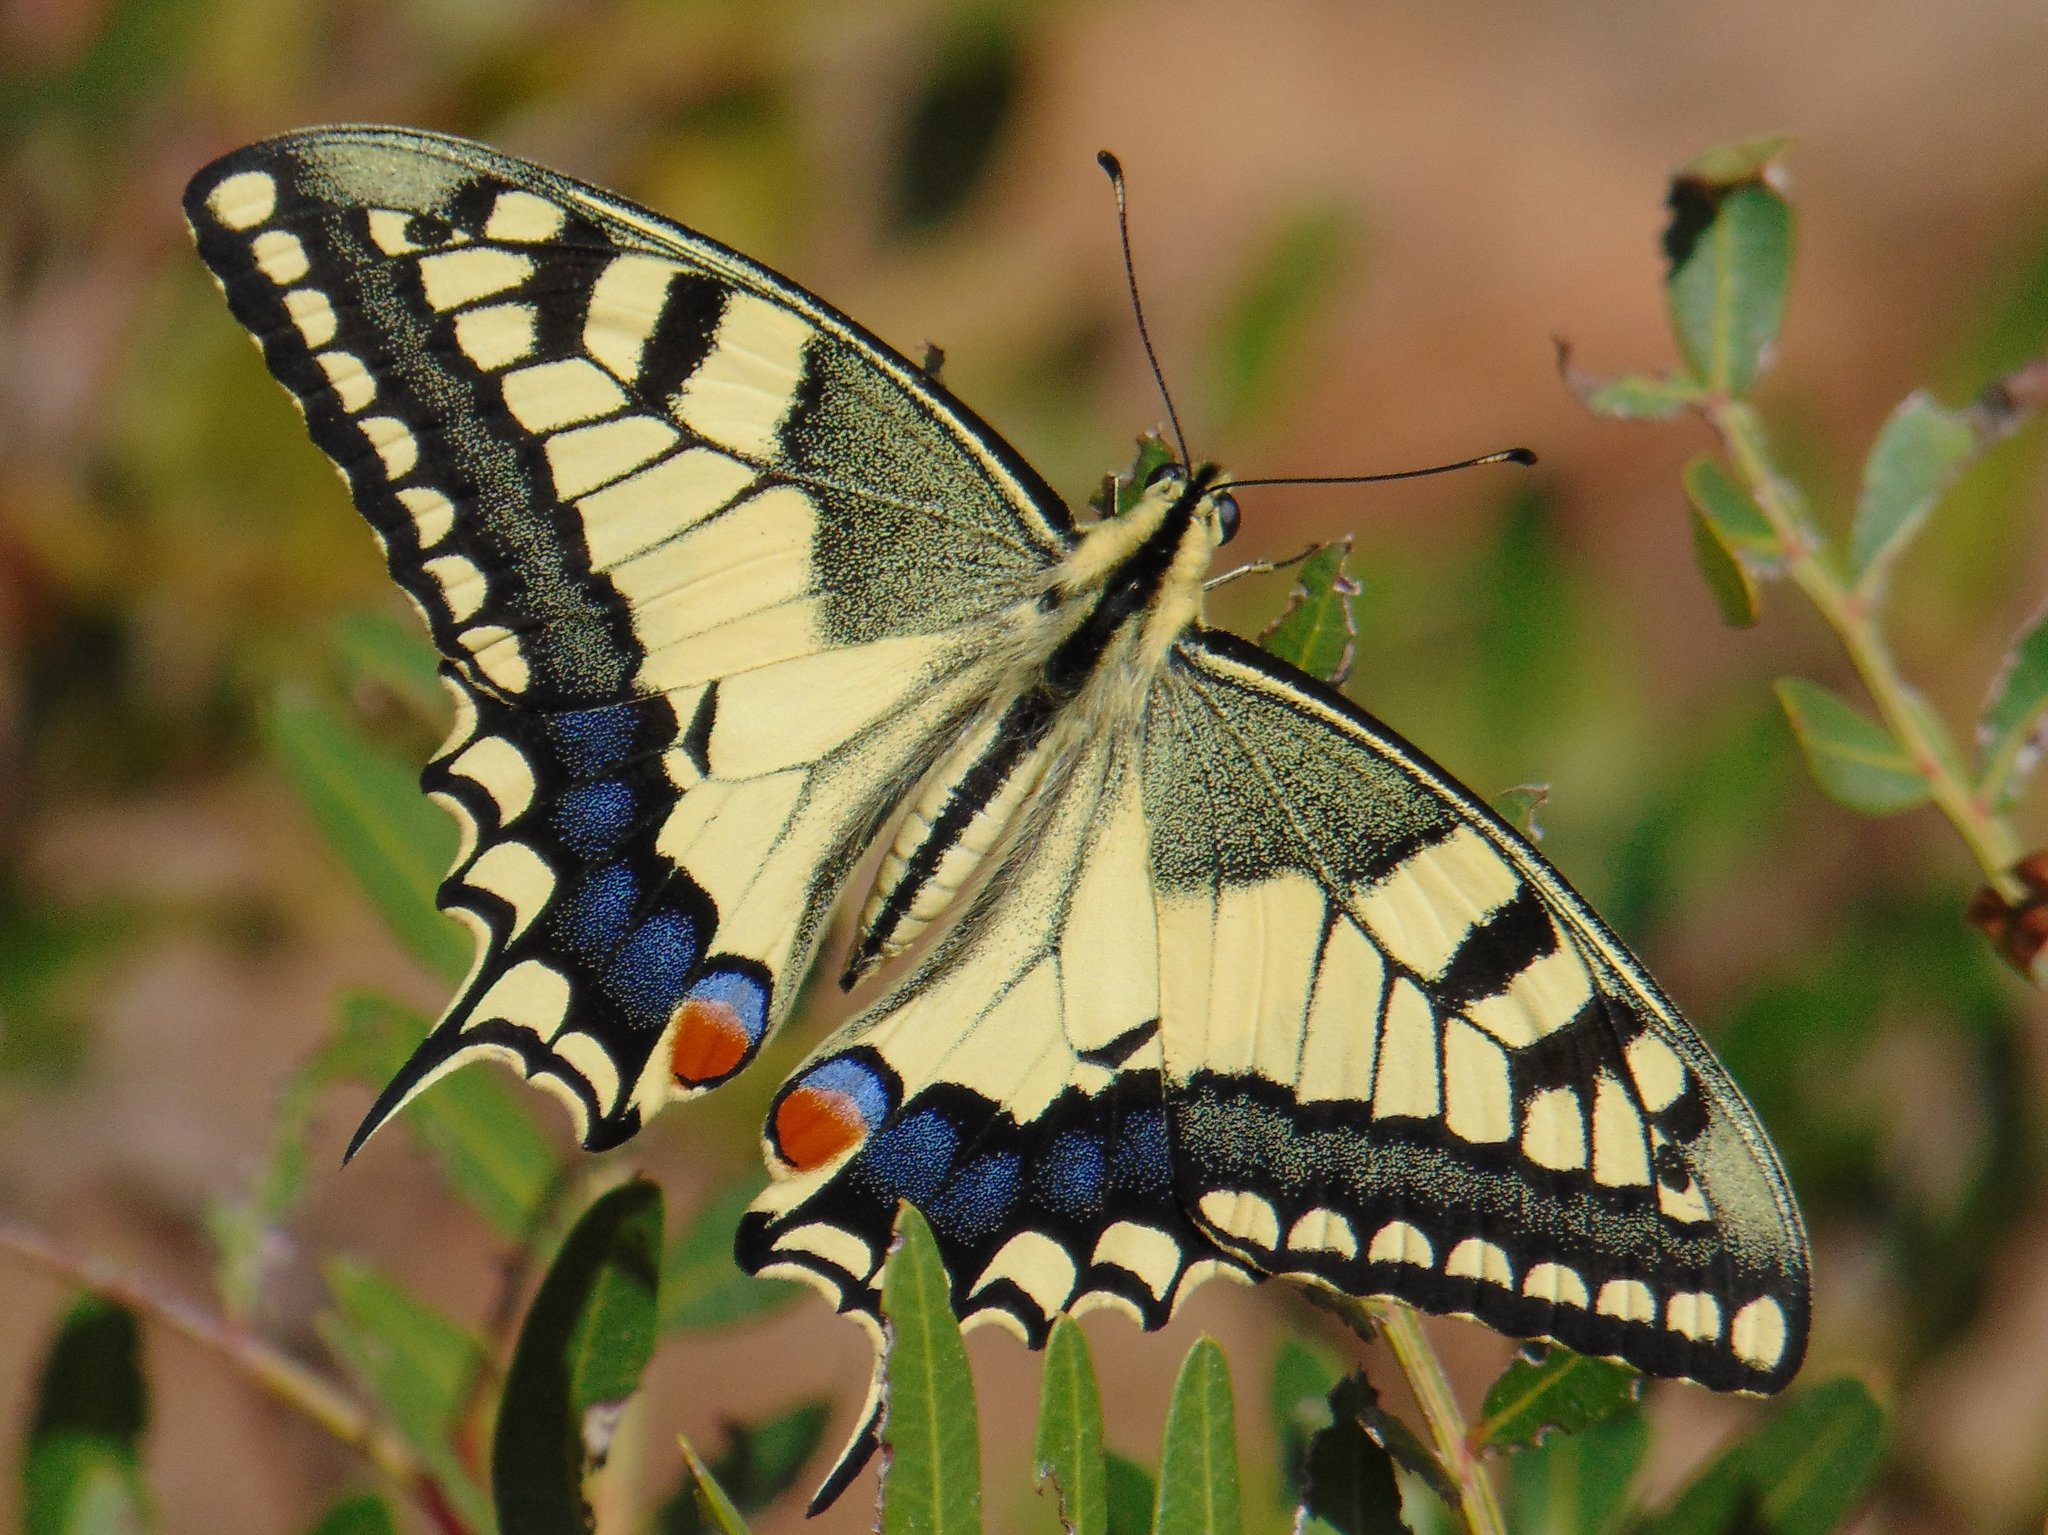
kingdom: Animalia
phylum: Arthropoda
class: Insecta
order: Lepidoptera
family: Papilionidae
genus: Papilio
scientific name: Papilio machaon
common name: Swallowtail
